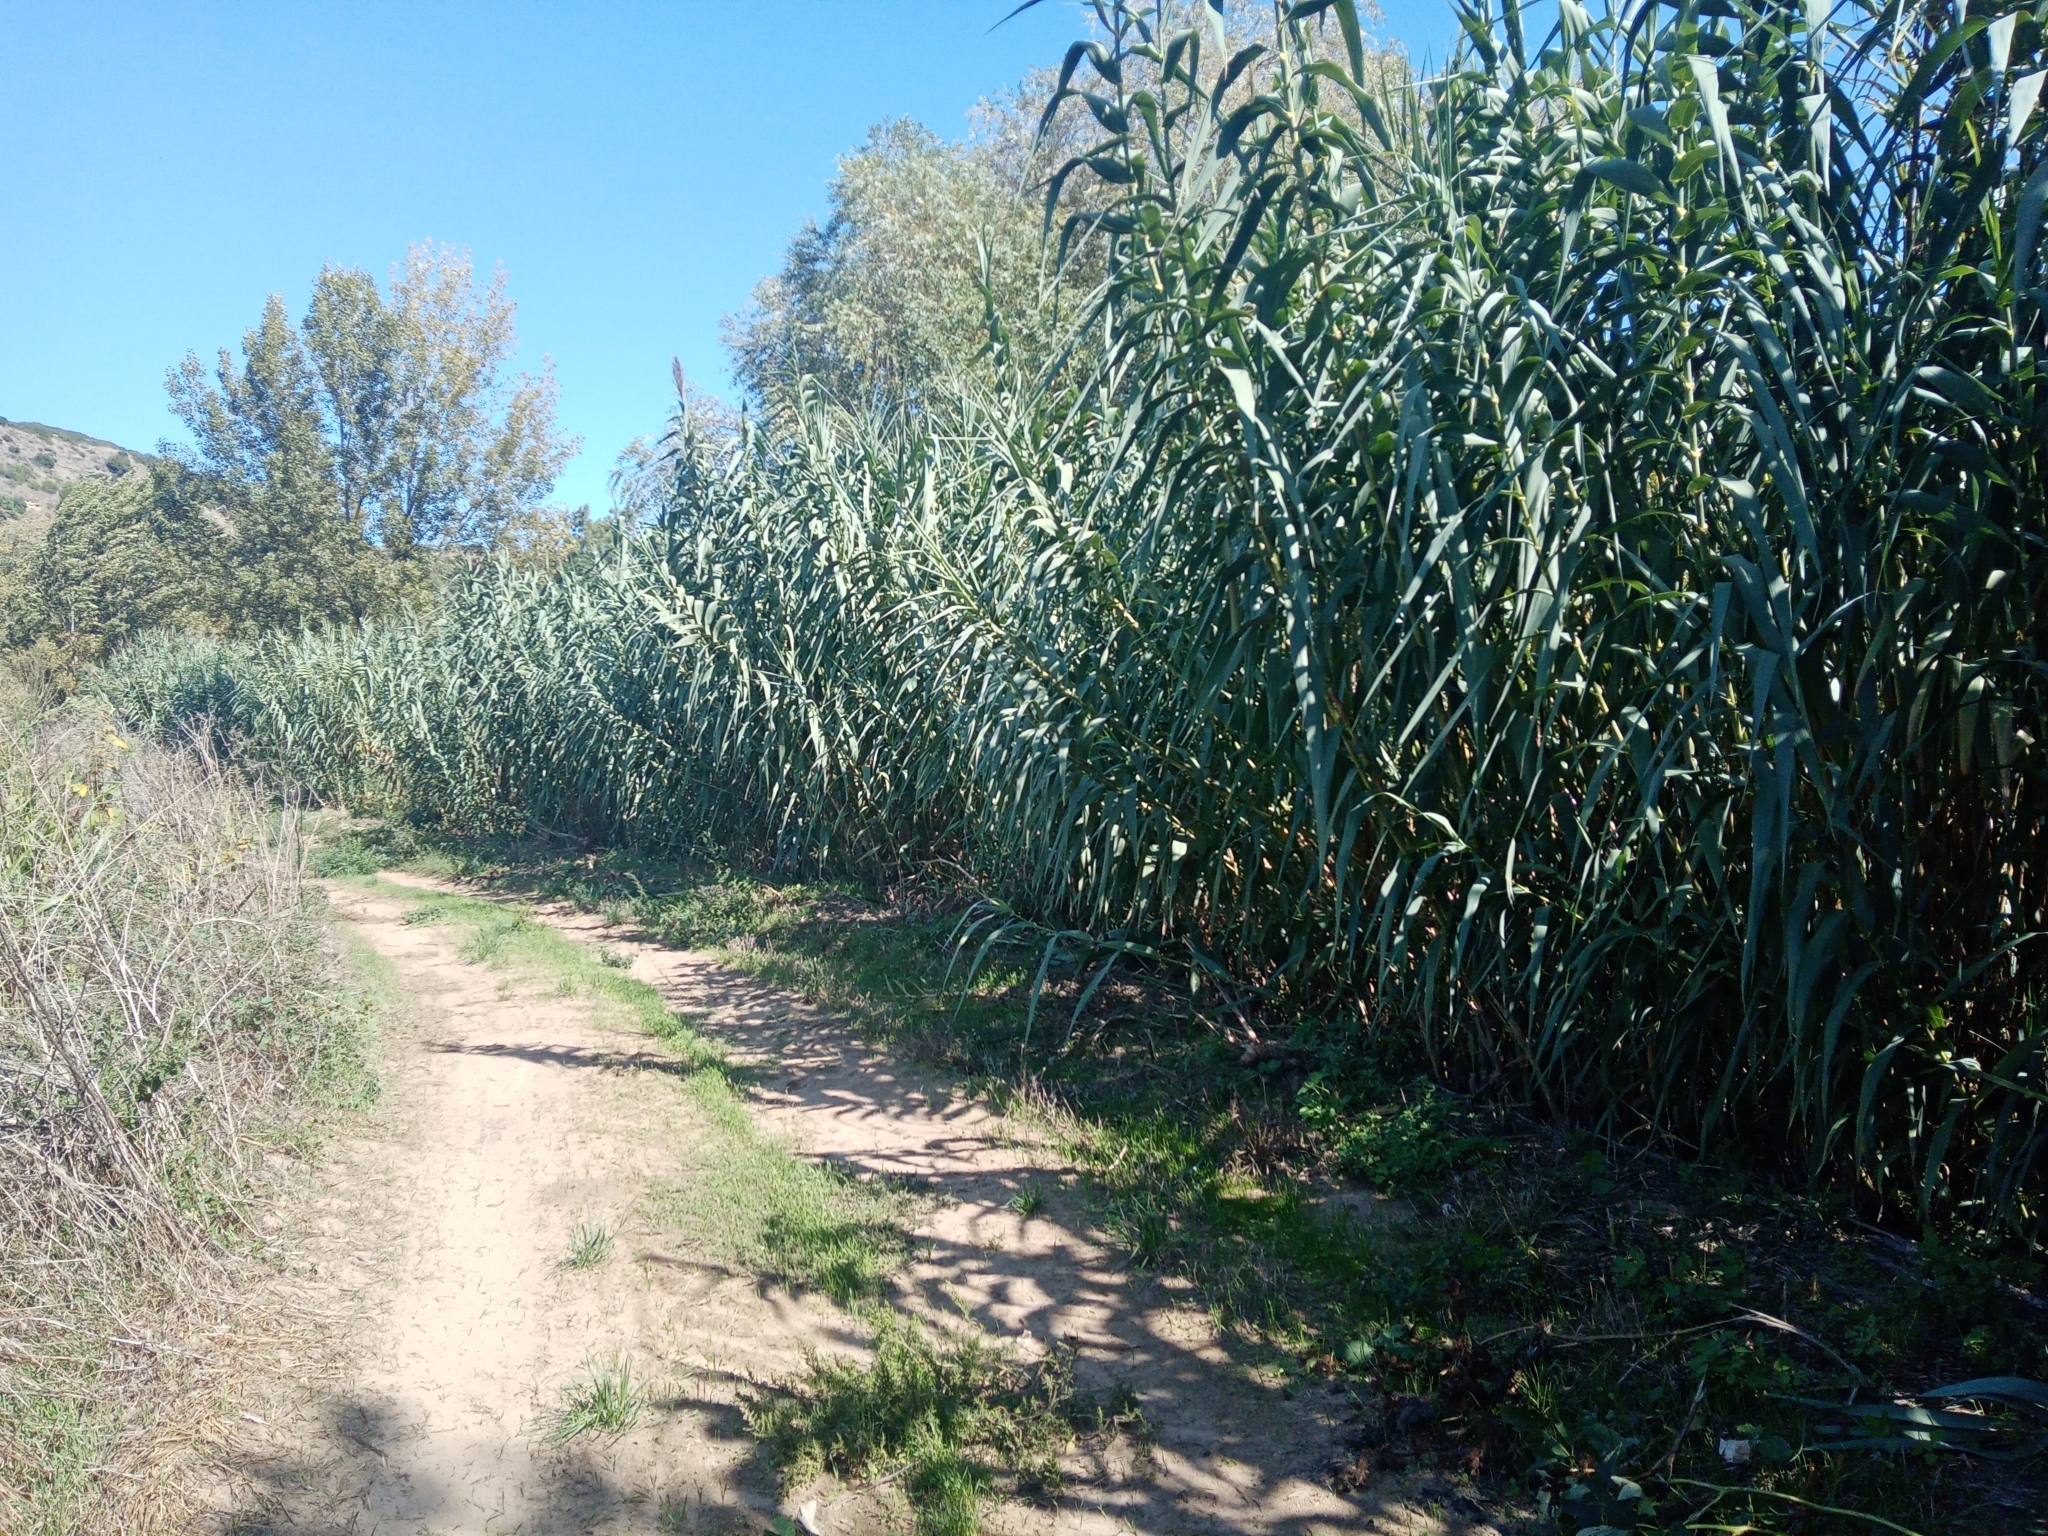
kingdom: Plantae
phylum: Tracheophyta
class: Liliopsida
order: Poales
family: Poaceae
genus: Arundo
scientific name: Arundo donax
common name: Giant reed
